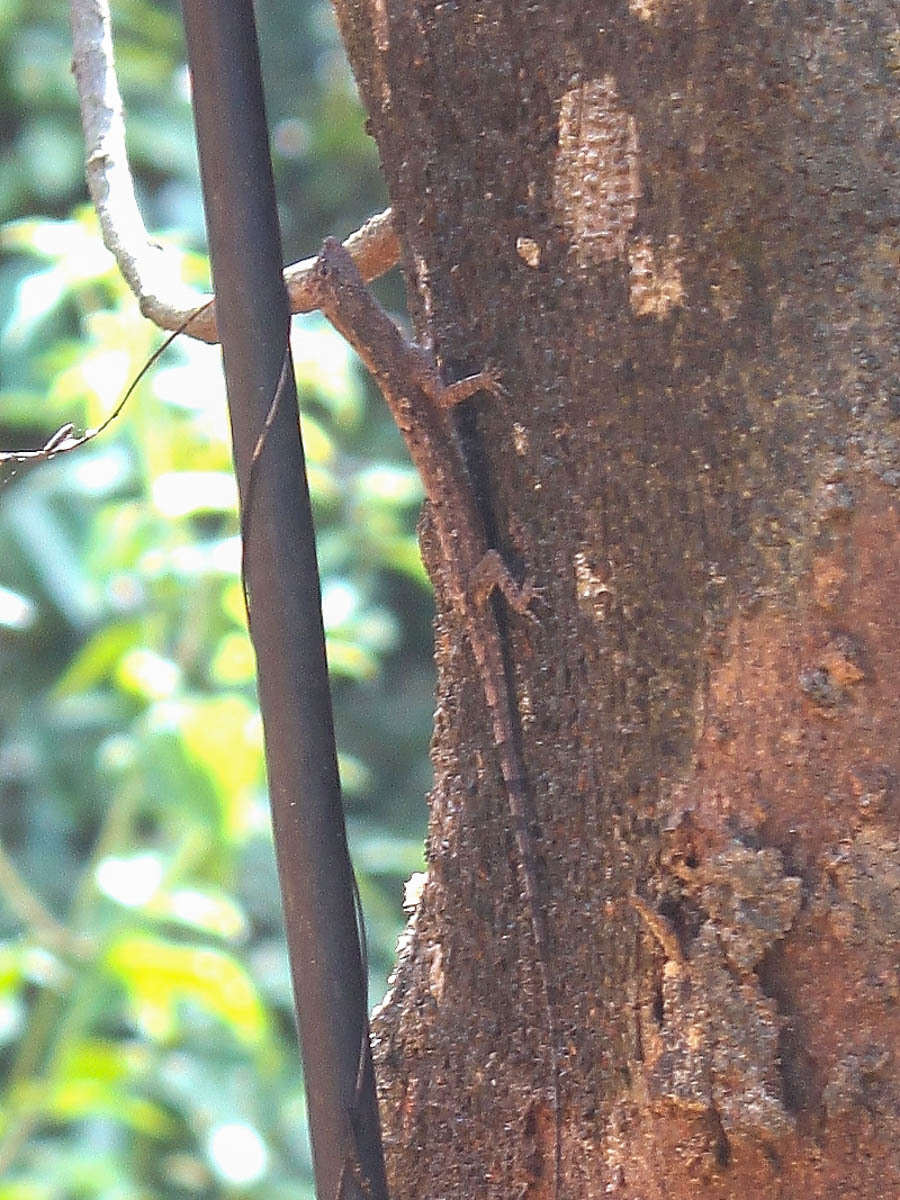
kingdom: Animalia
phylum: Chordata
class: Squamata
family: Agamidae
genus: Draco
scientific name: Draco maculatus
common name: Spotted flying dragon
